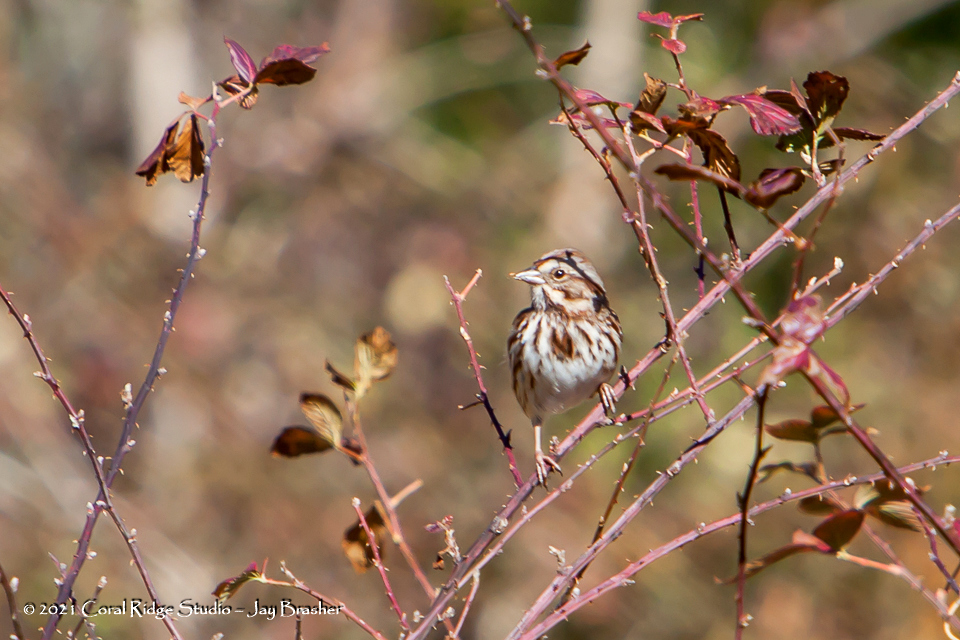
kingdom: Animalia
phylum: Chordata
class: Aves
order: Passeriformes
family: Passerellidae
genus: Melospiza
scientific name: Melospiza melodia
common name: Song sparrow
